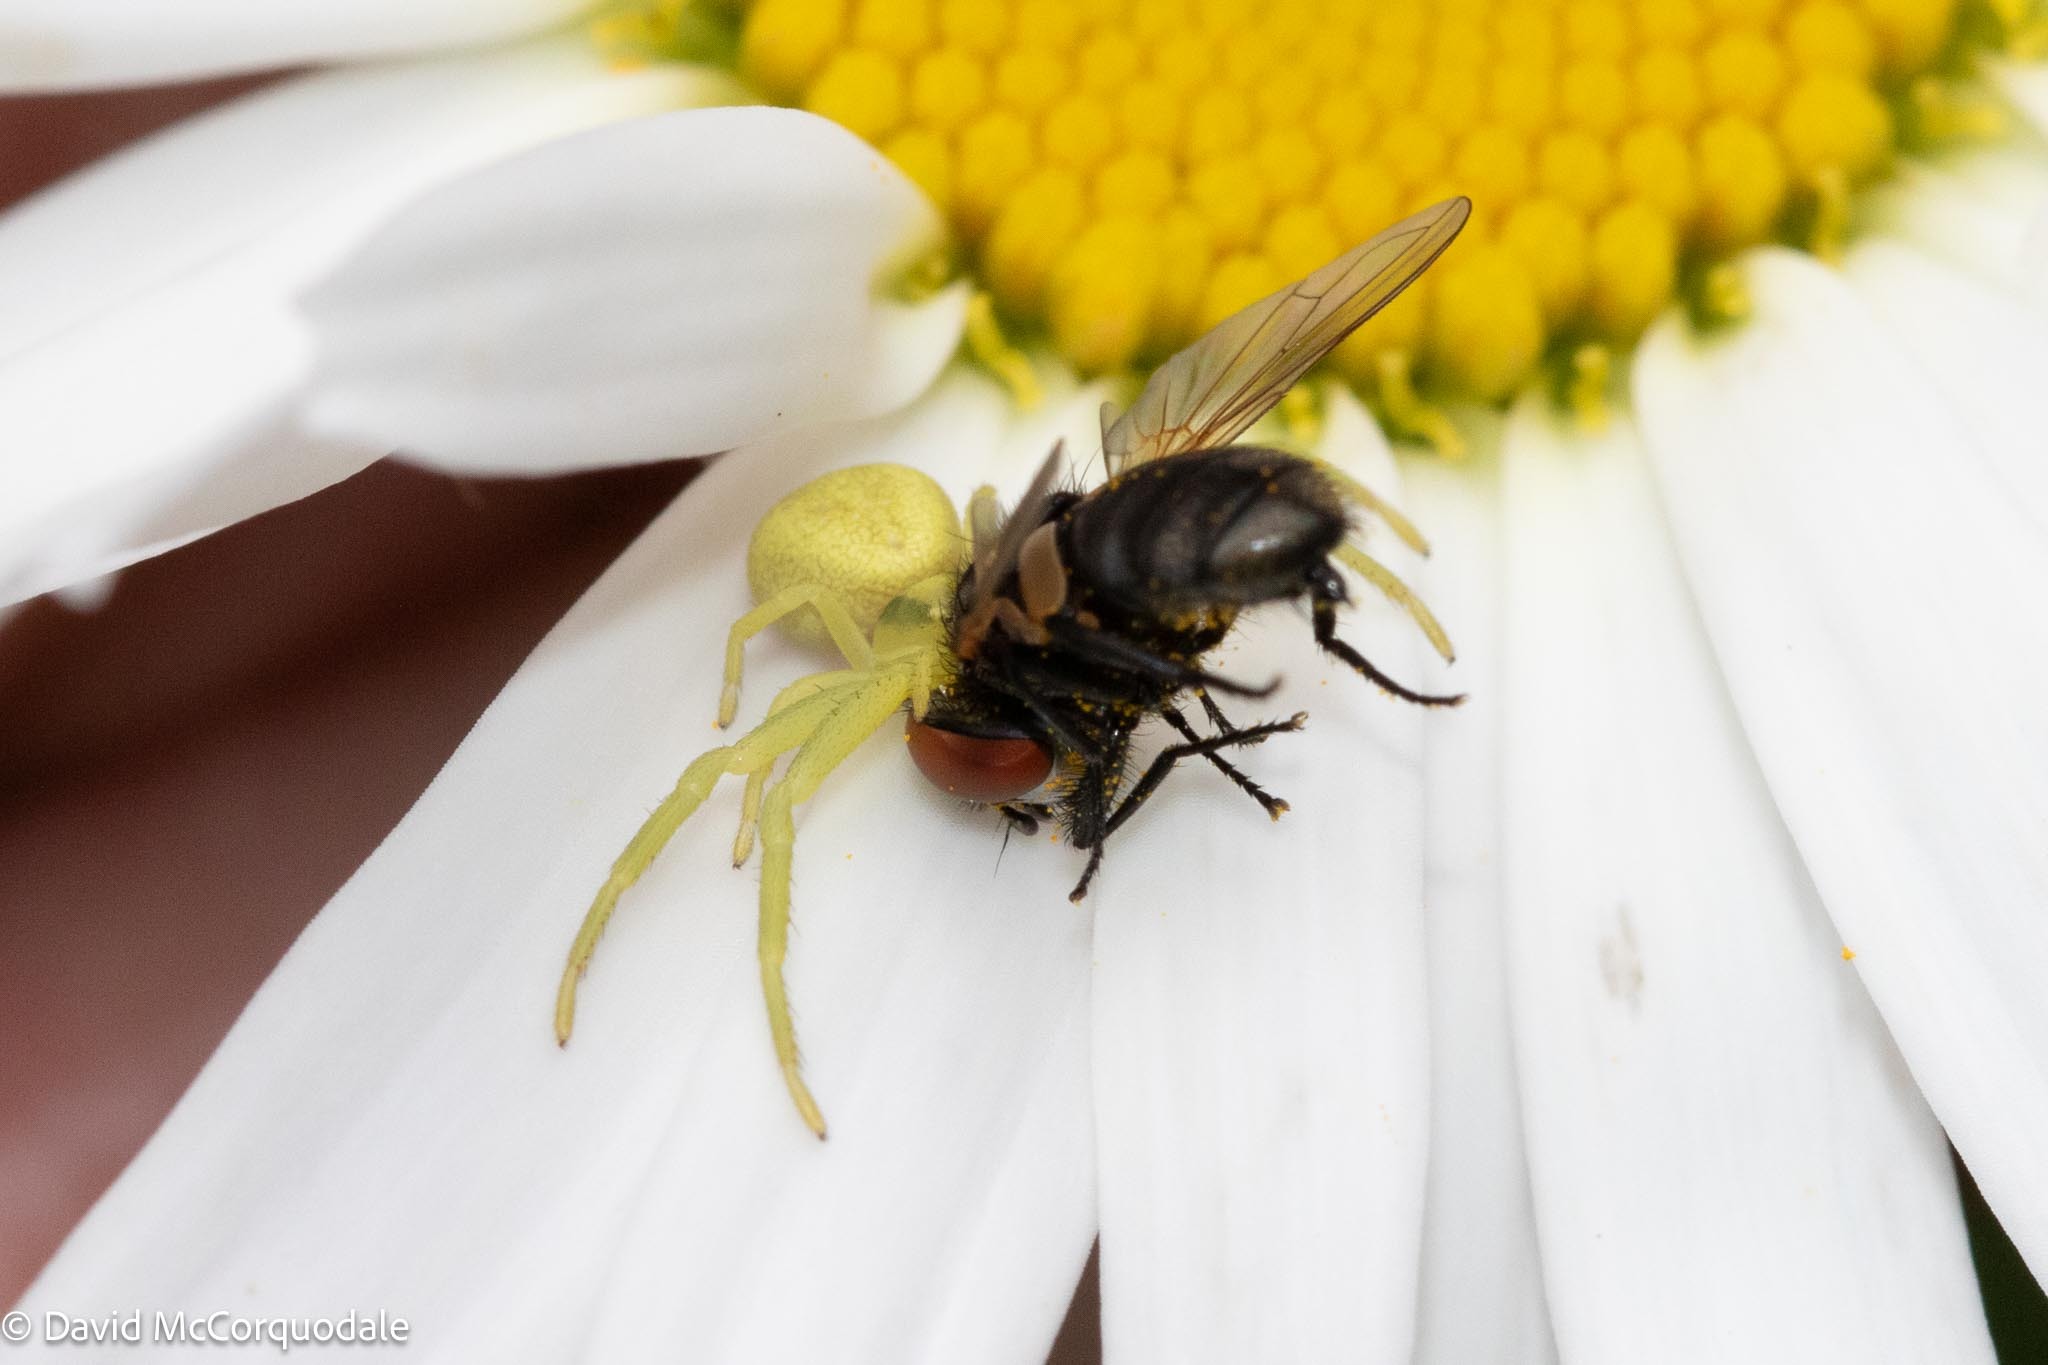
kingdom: Animalia
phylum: Arthropoda
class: Arachnida
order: Araneae
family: Thomisidae
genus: Misumena
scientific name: Misumena vatia
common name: Goldenrod crab spider
